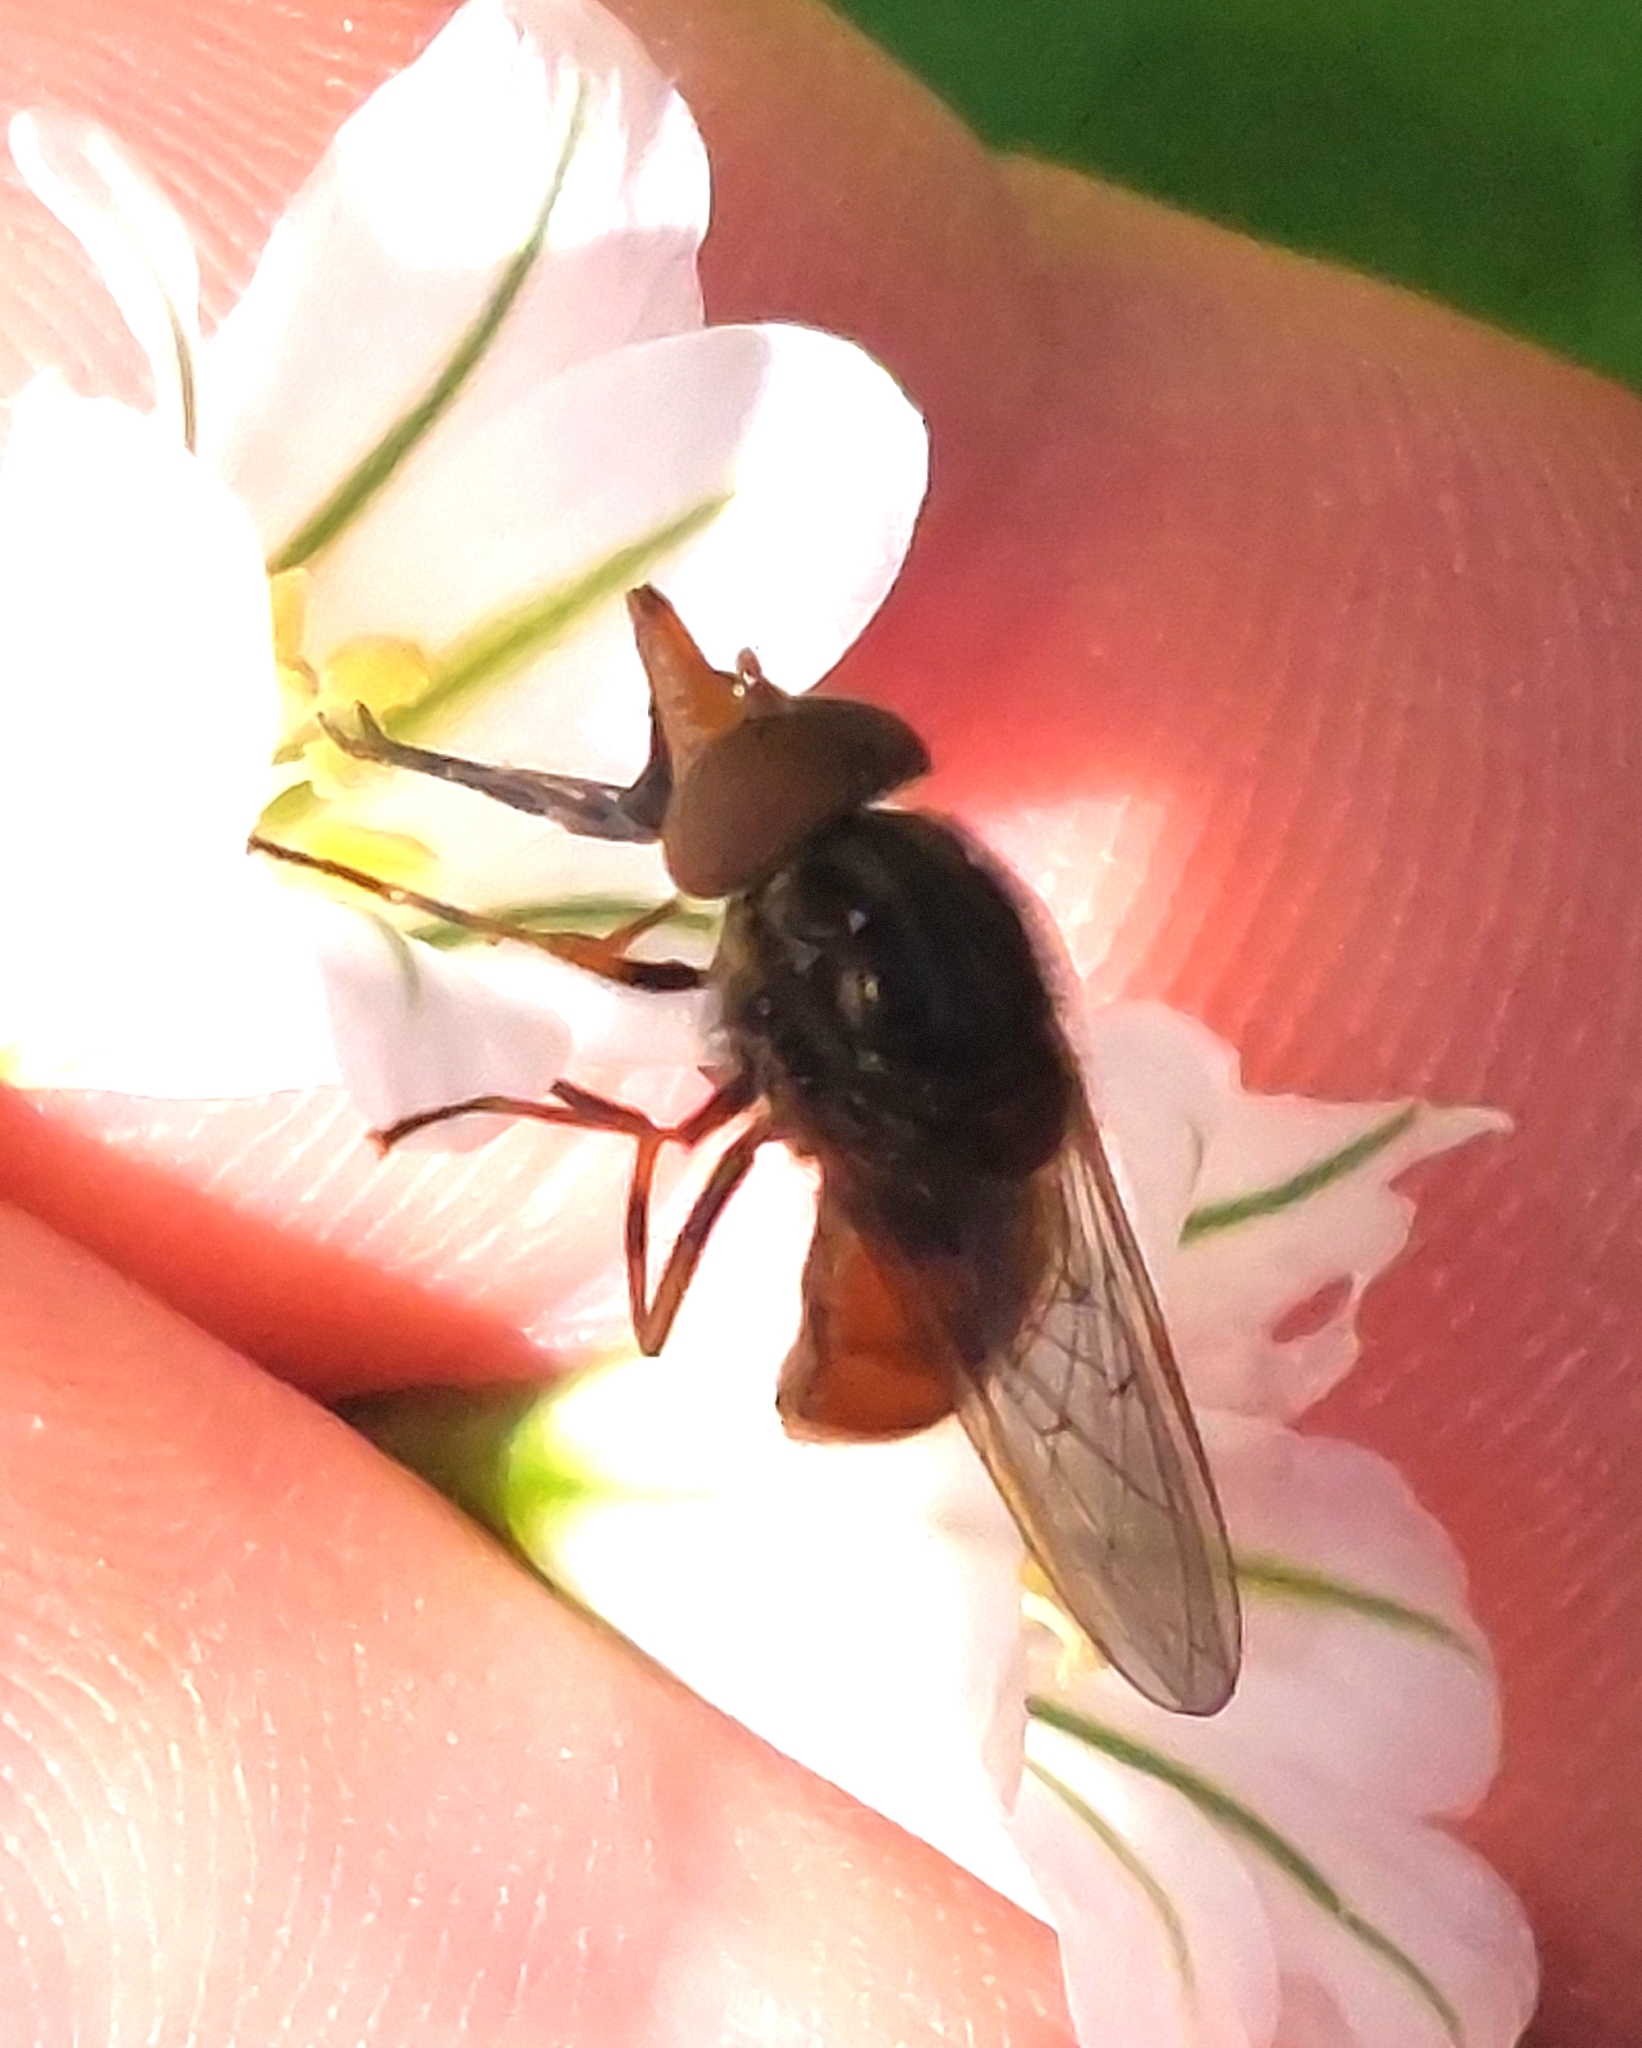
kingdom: Animalia
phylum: Arthropoda
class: Insecta
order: Diptera
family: Syrphidae
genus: Rhingia
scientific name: Rhingia campestris
